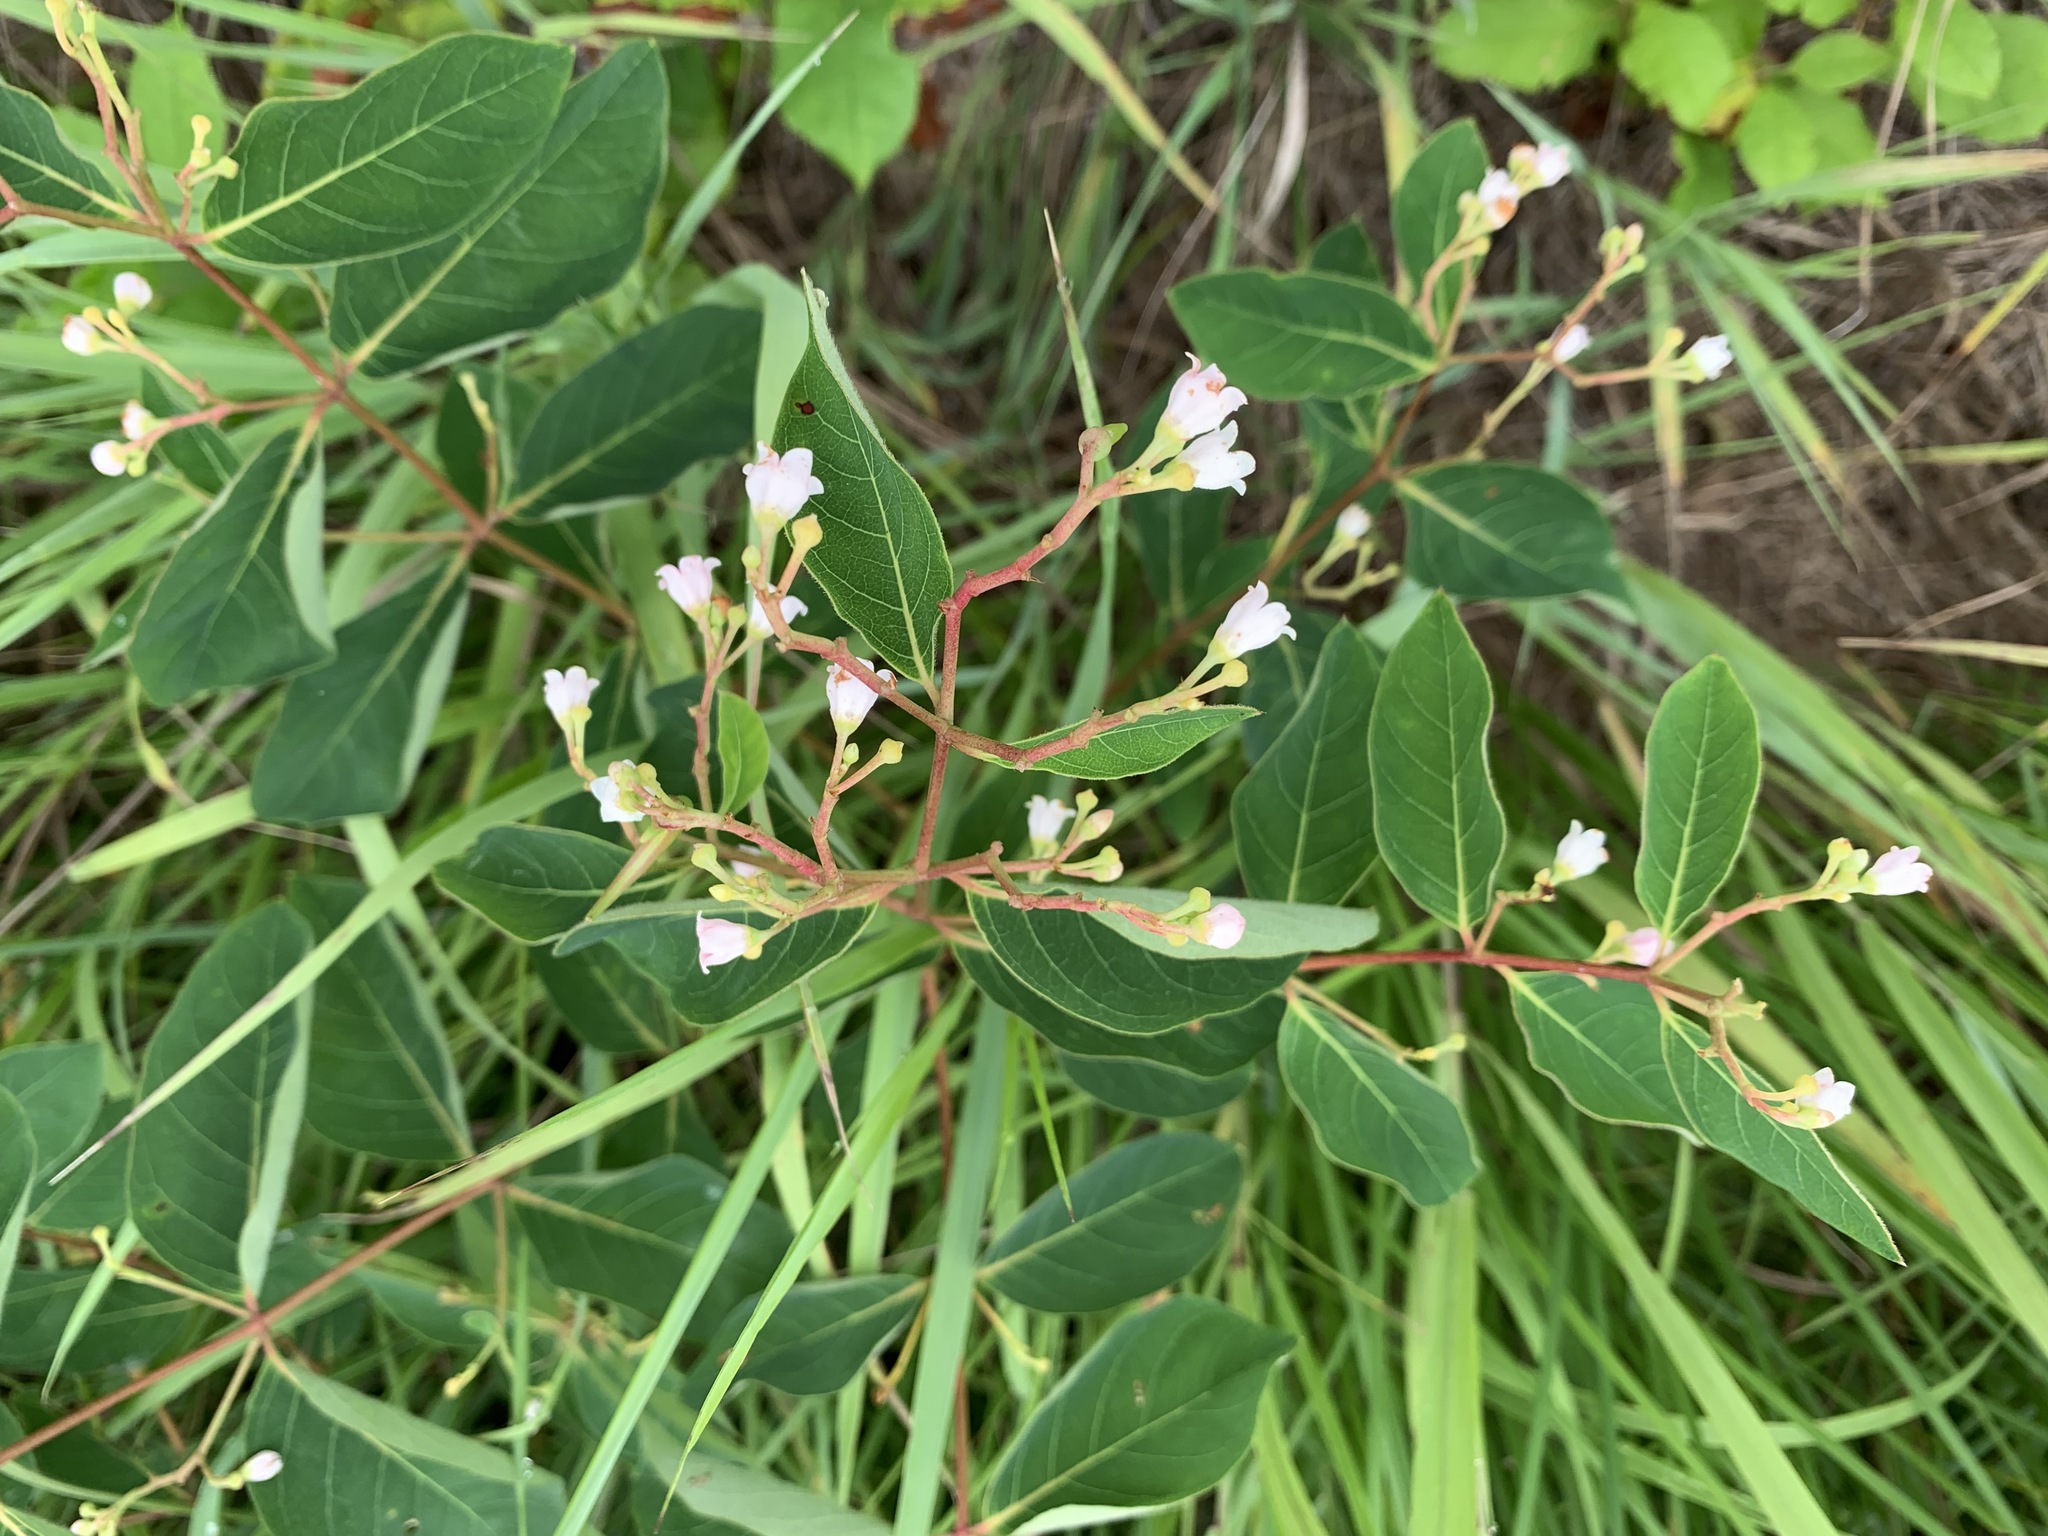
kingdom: Plantae
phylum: Tracheophyta
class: Magnoliopsida
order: Gentianales
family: Apocynaceae
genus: Apocynum
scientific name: Apocynum androsaemifolium
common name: Spreading dogbane
